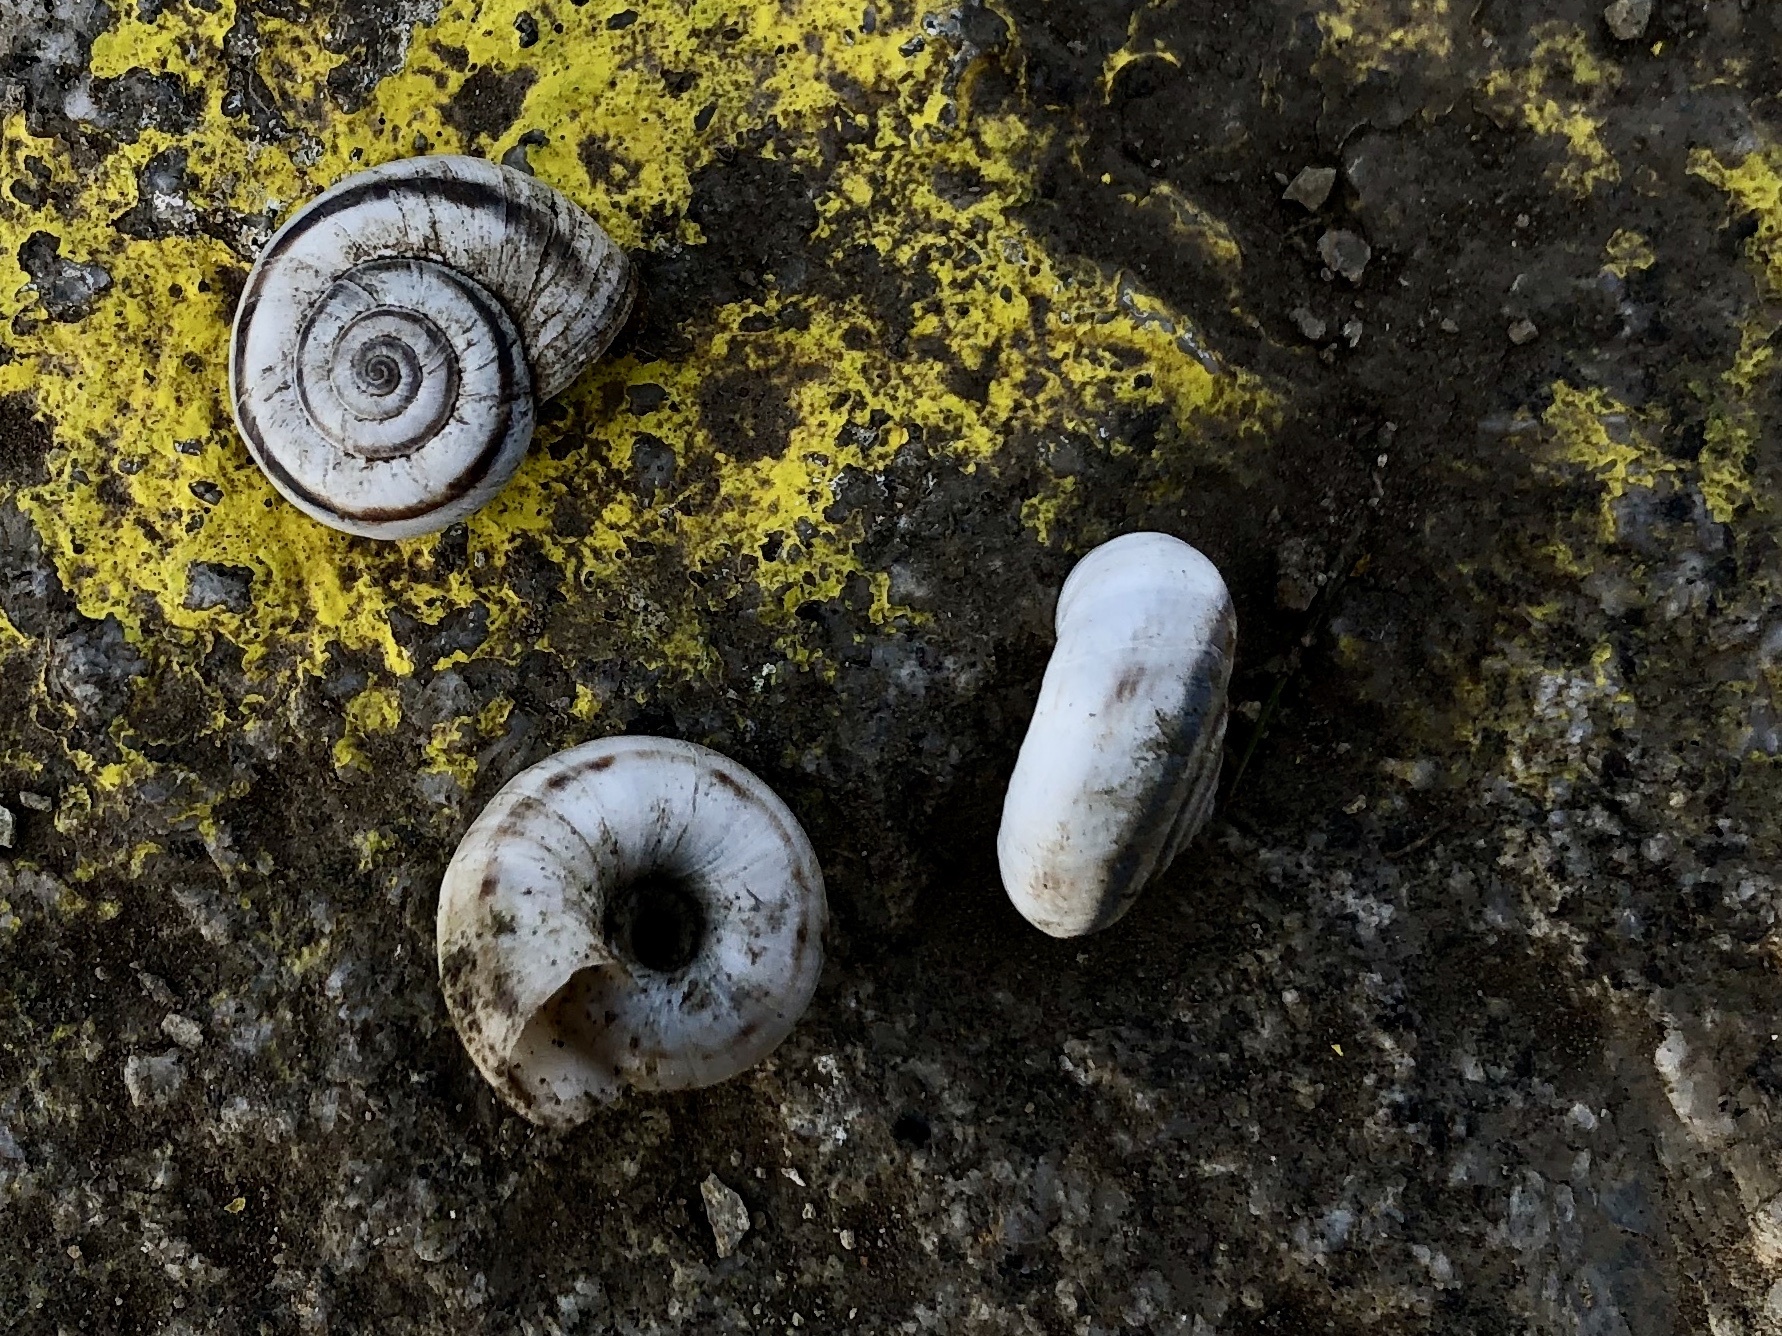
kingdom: Animalia
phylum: Mollusca
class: Gastropoda
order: Stylommatophora
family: Geomitridae
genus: Xerolenta
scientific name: Xerolenta obvia
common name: White heath snail
